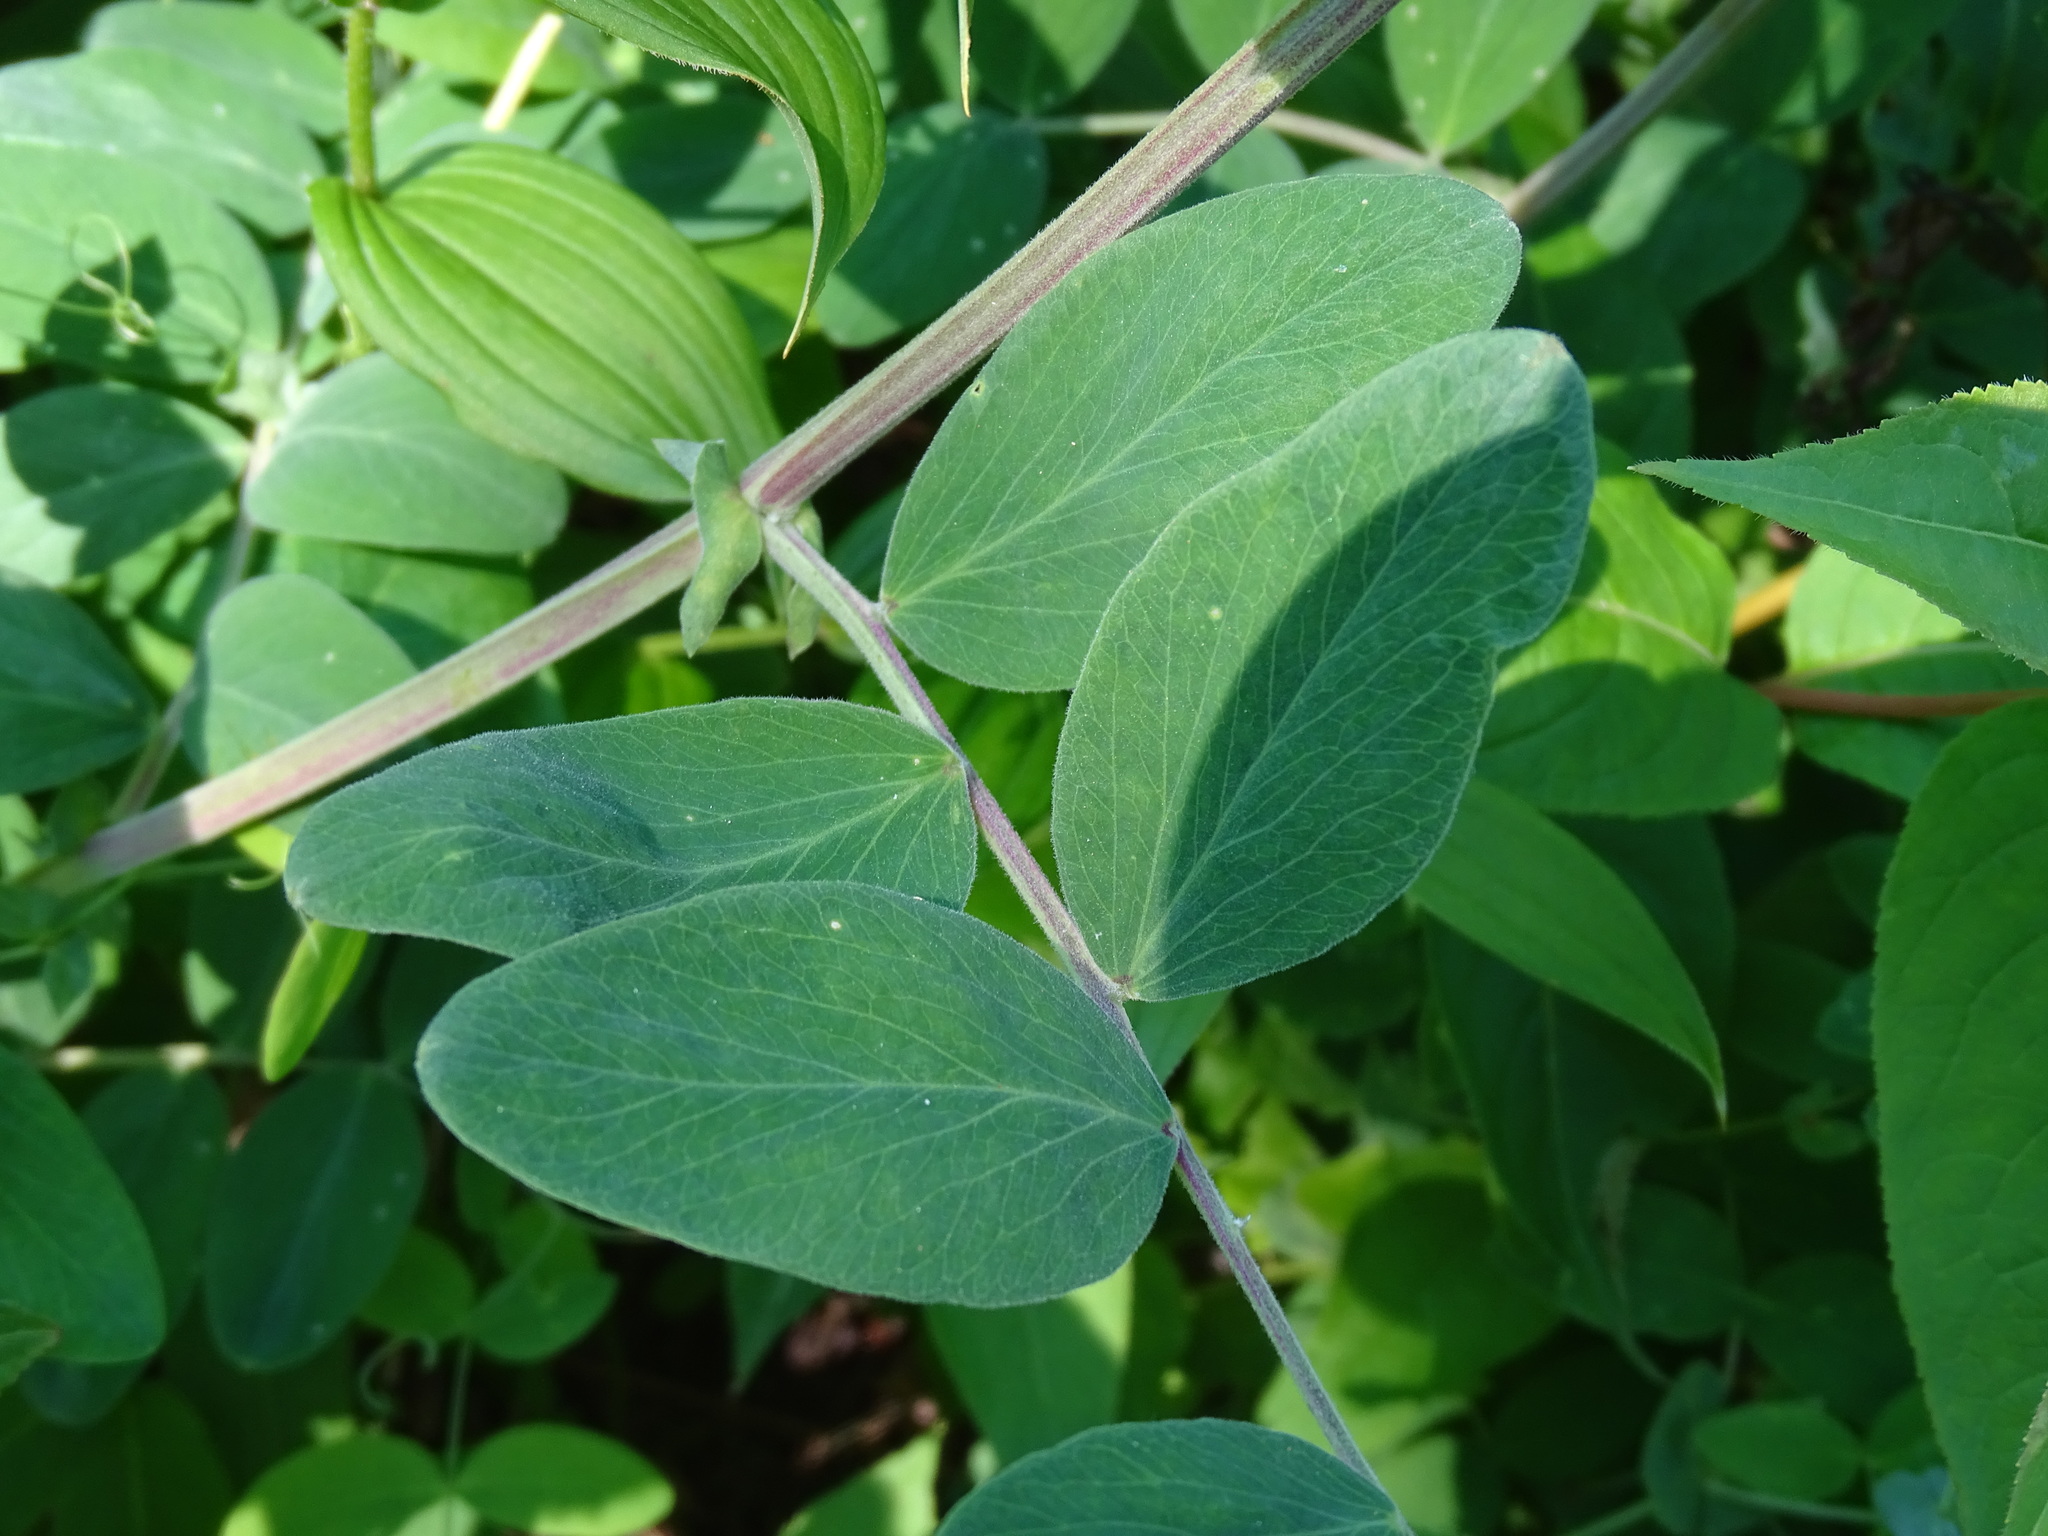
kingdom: Plantae
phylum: Tracheophyta
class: Magnoliopsida
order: Fabales
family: Fabaceae
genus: Lathyrus
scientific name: Lathyrus venosus
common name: Forest-pea
